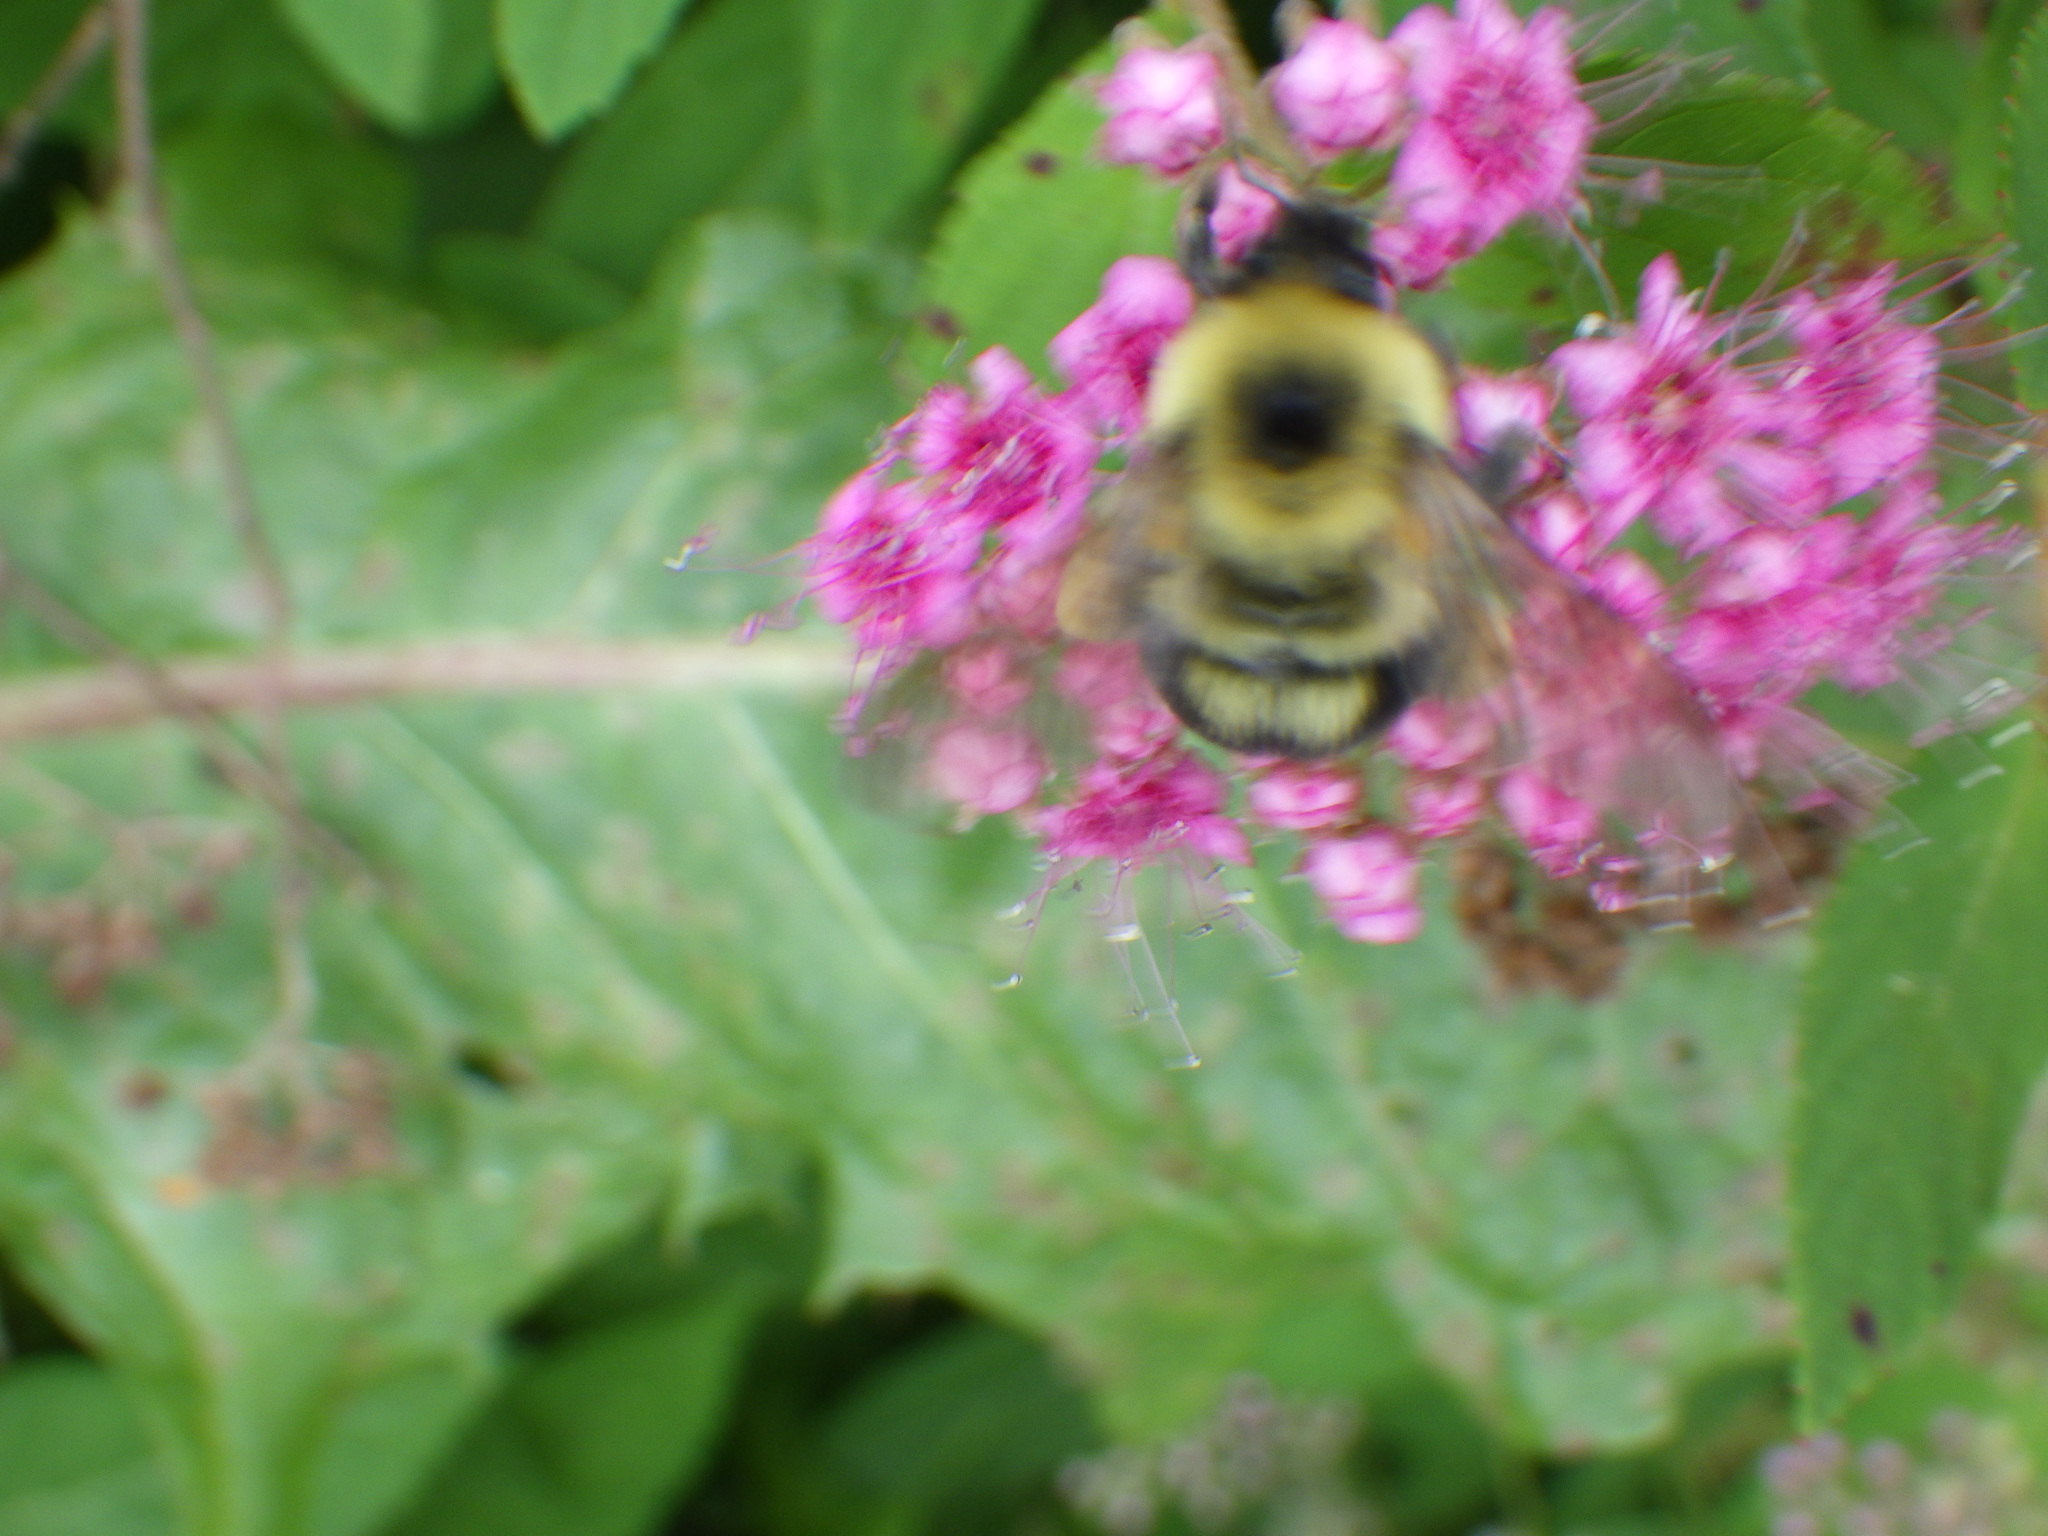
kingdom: Animalia
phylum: Arthropoda
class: Insecta
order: Hymenoptera
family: Apidae
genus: Bombus
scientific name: Bombus bimaculatus
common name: Two-spotted bumble bee
